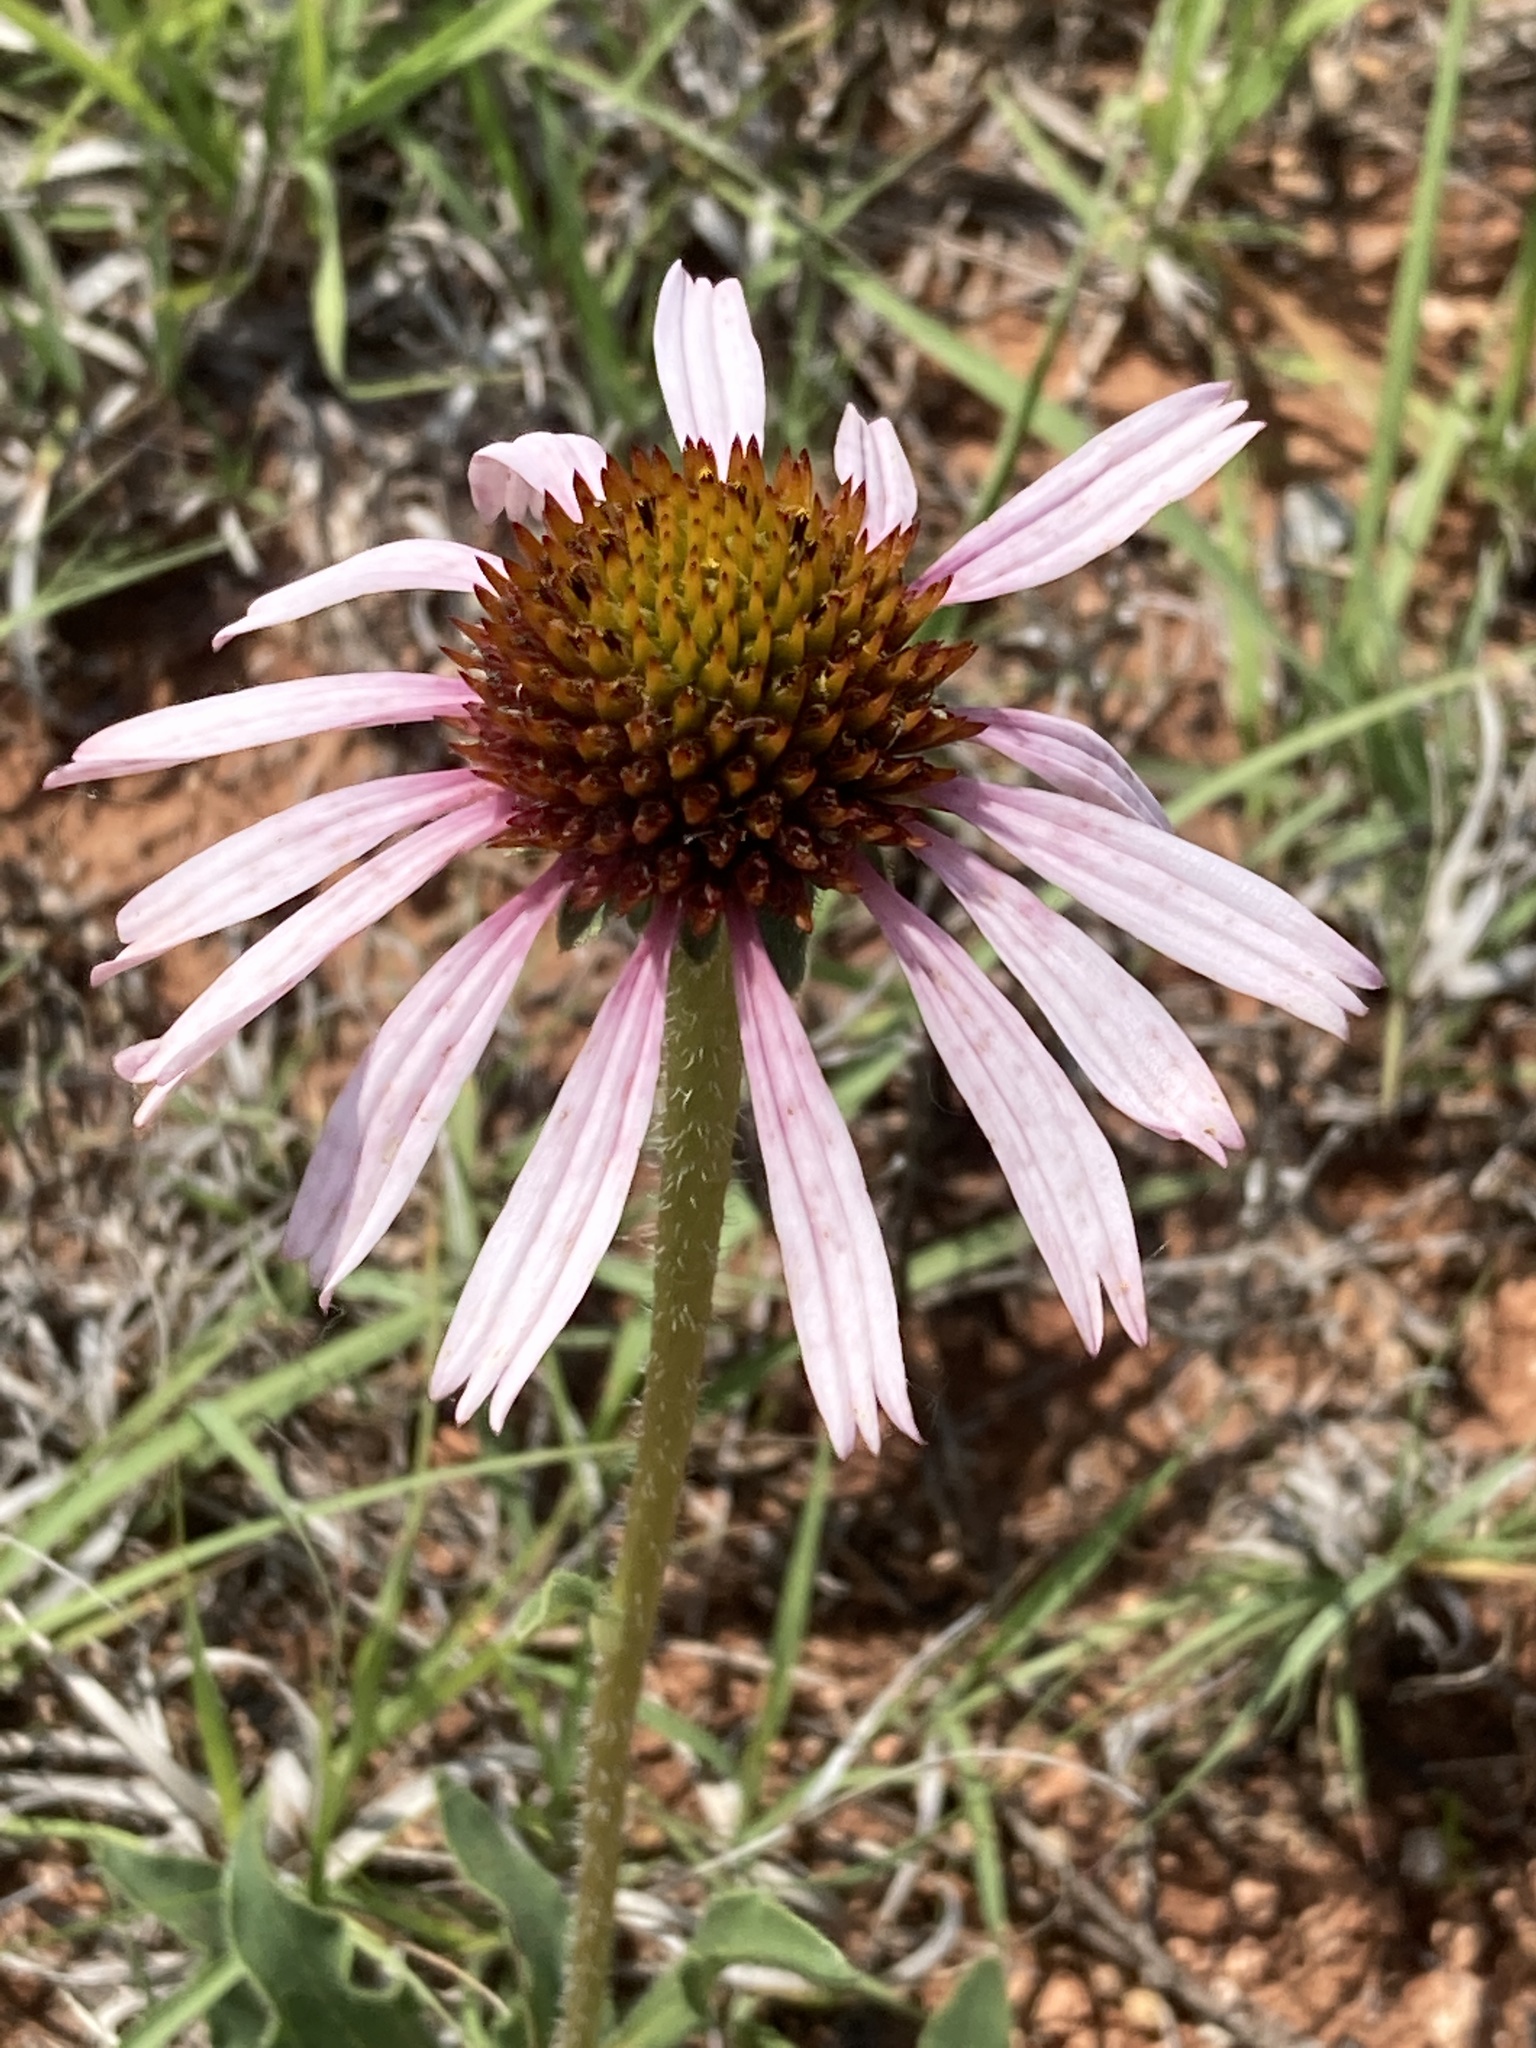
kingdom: Plantae
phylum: Tracheophyta
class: Magnoliopsida
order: Asterales
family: Asteraceae
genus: Echinacea
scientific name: Echinacea angustifolia
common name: Black-sampson echinacea
